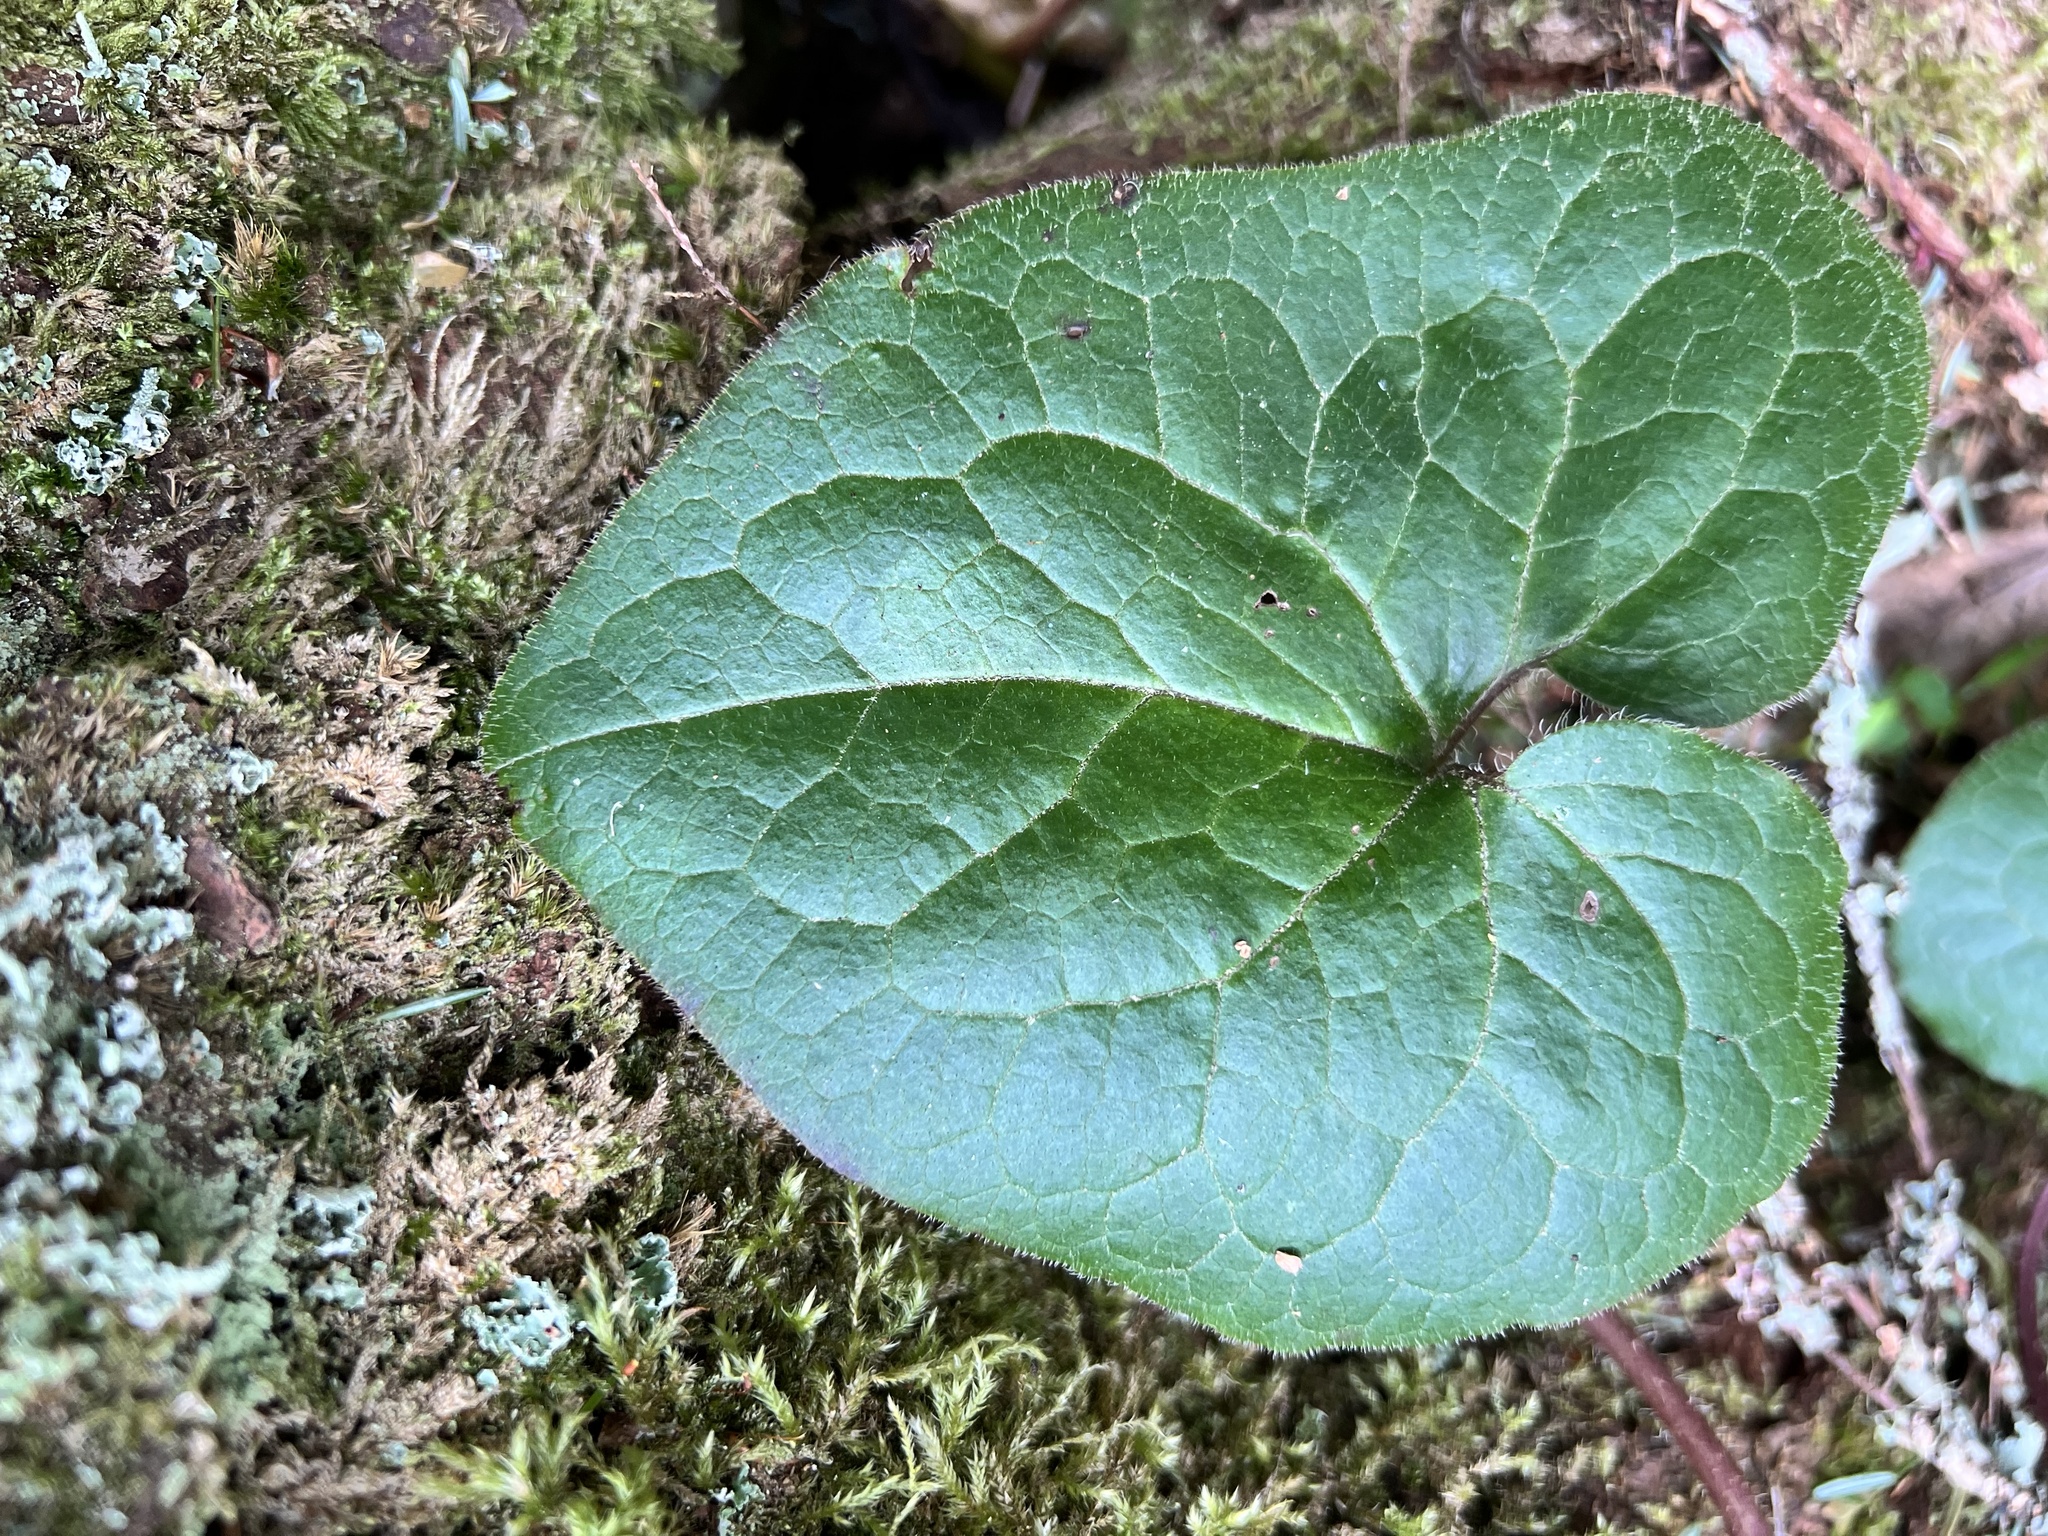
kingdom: Plantae
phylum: Tracheophyta
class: Magnoliopsida
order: Piperales
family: Aristolochiaceae
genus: Asarum
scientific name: Asarum caudatum
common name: Wild ginger
